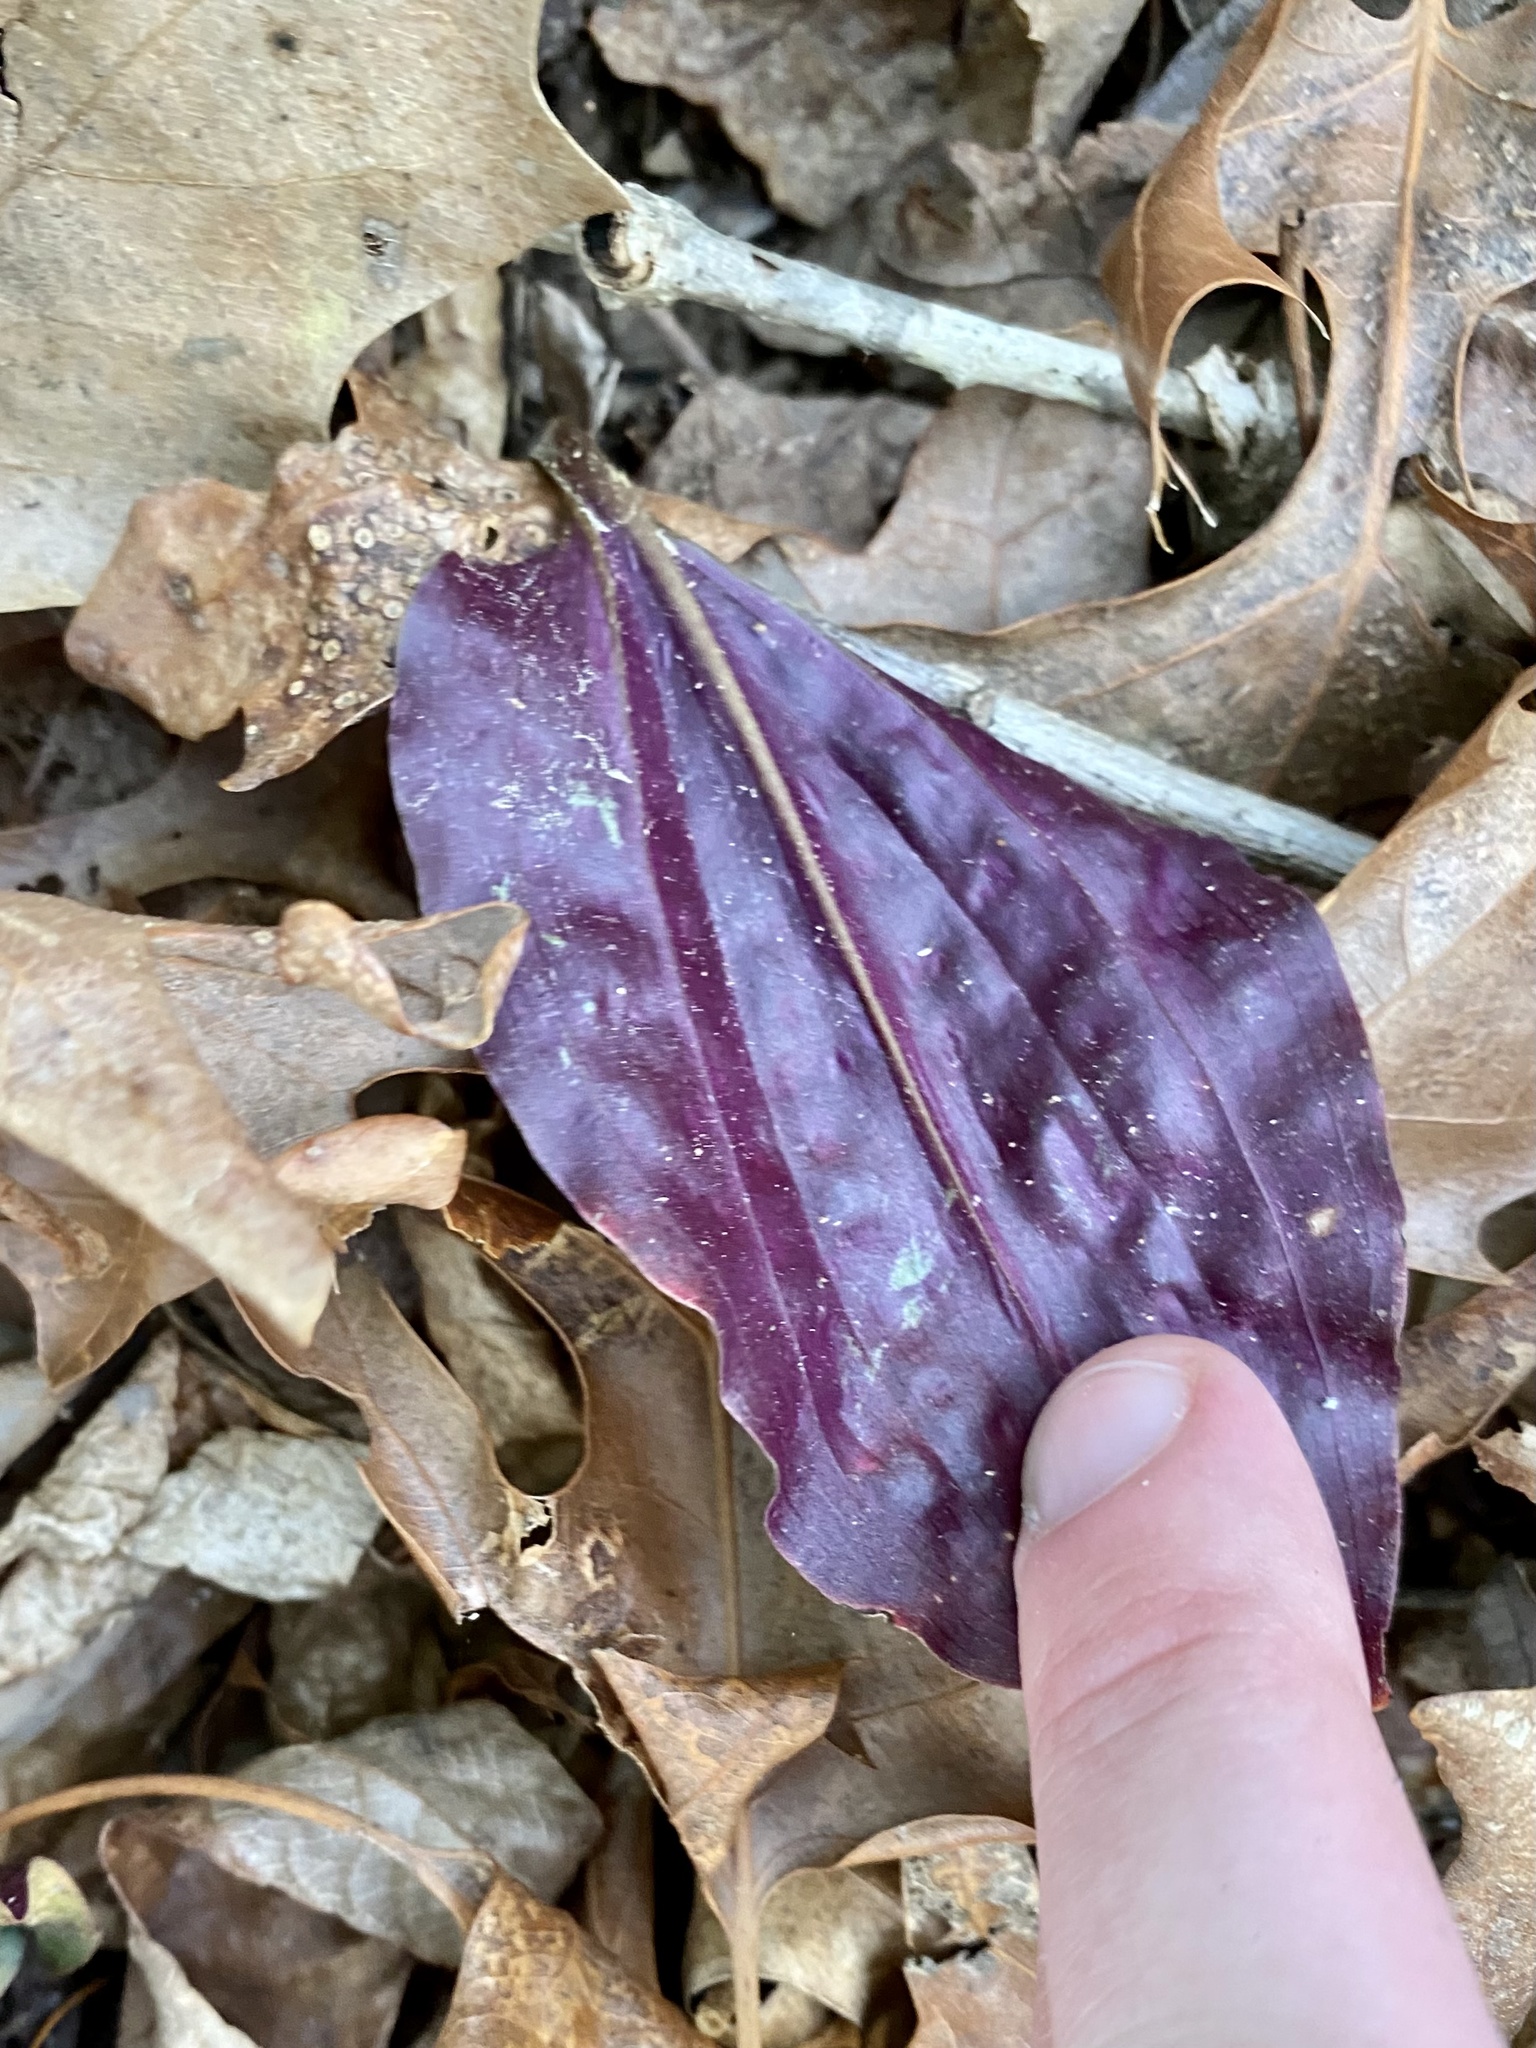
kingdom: Plantae
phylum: Tracheophyta
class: Liliopsida
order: Asparagales
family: Orchidaceae
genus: Tipularia
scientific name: Tipularia discolor
